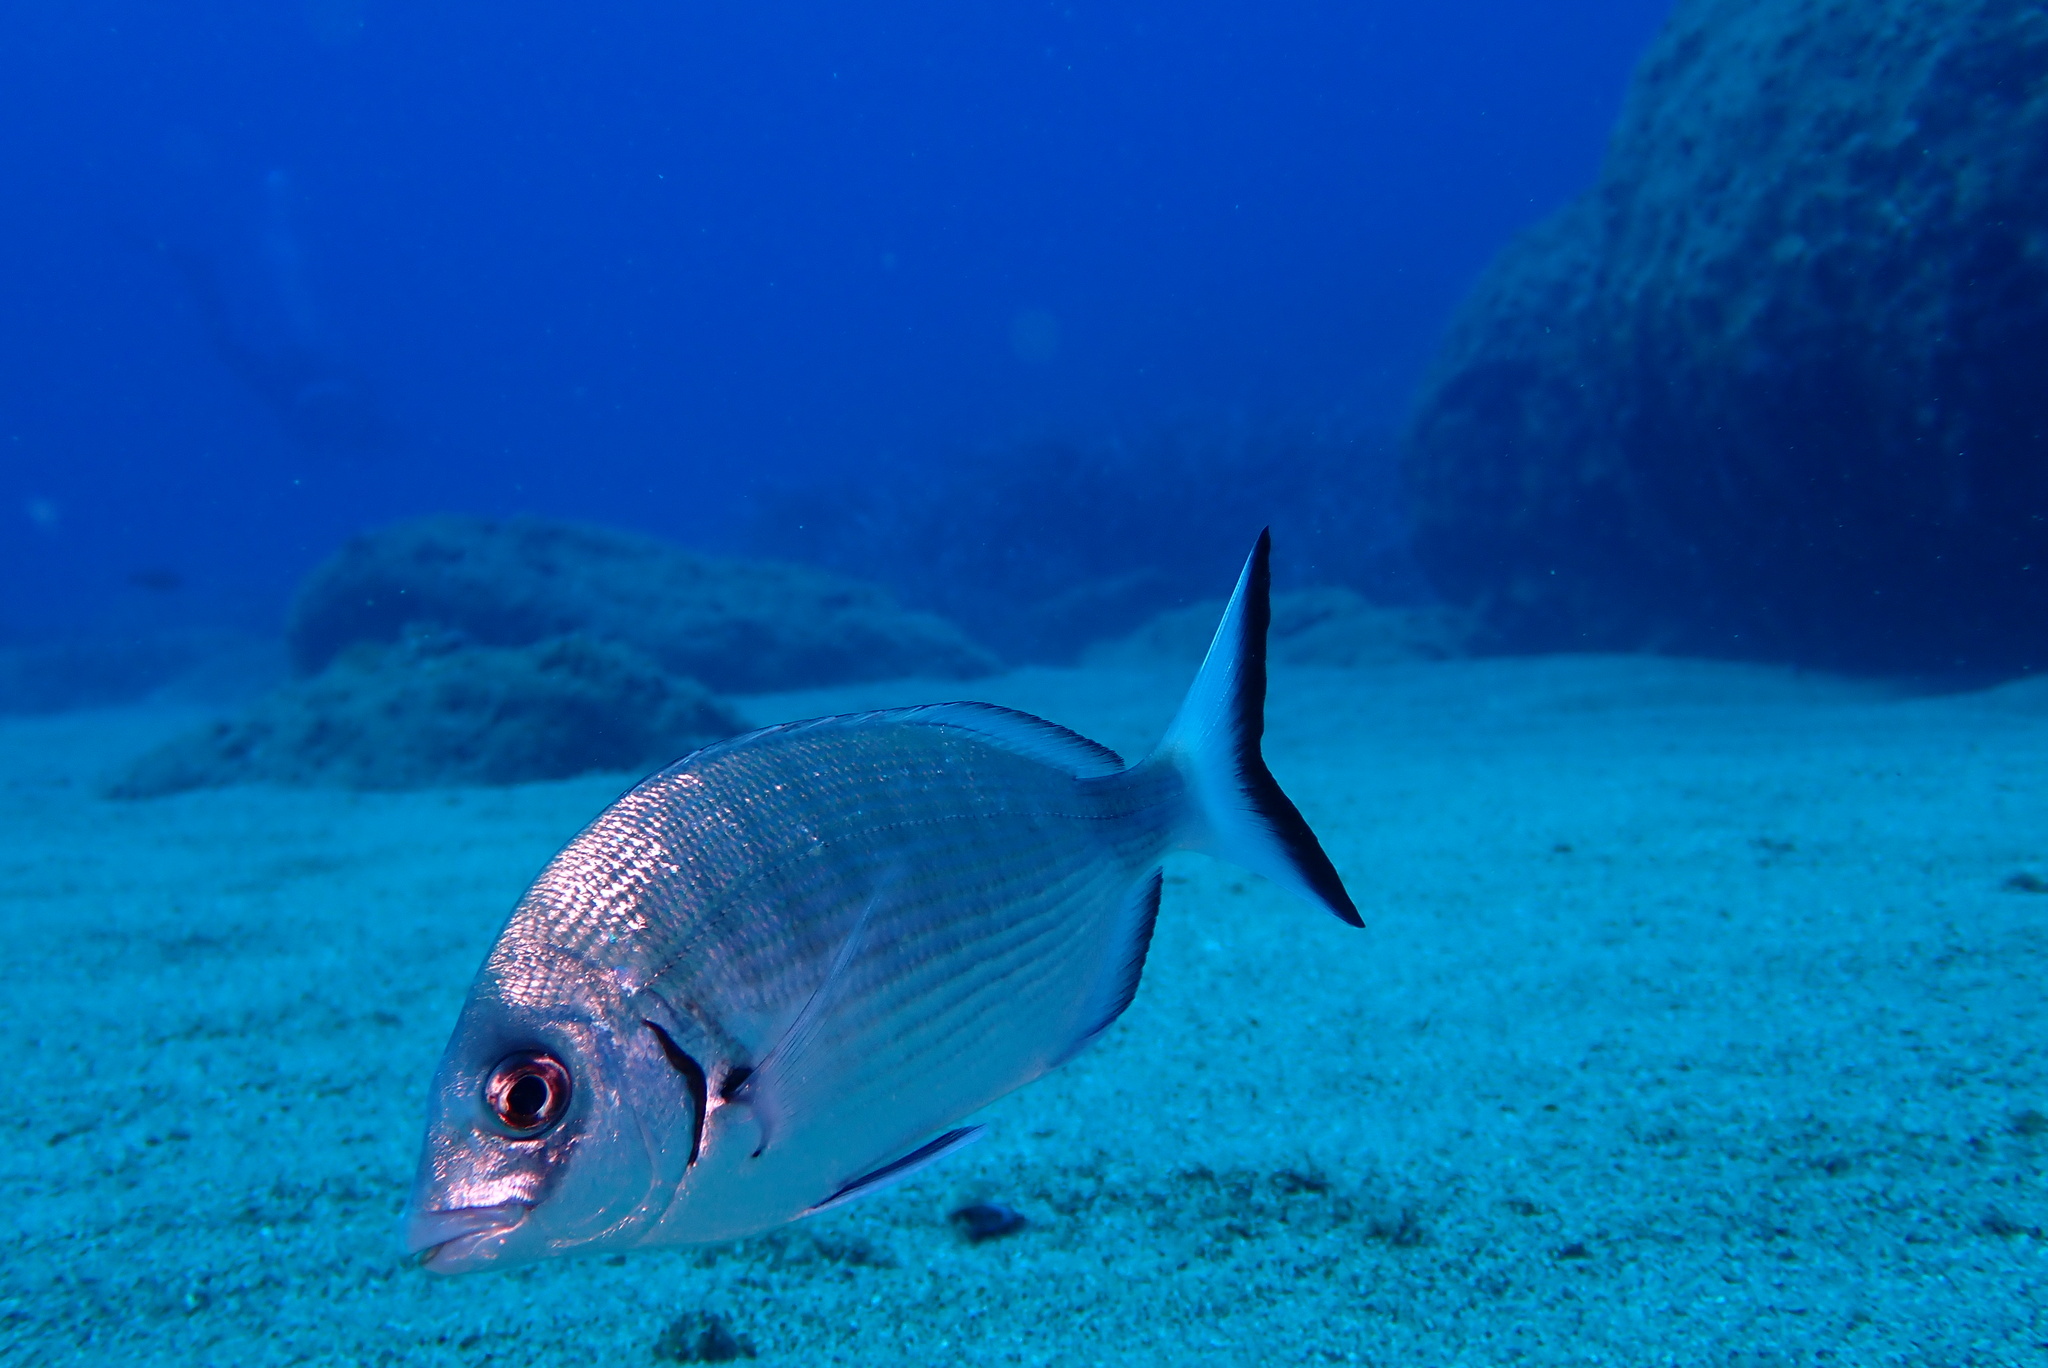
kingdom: Animalia
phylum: Chordata
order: Perciformes
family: Sparidae
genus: Diplodus
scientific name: Diplodus sargus
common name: White seabream
